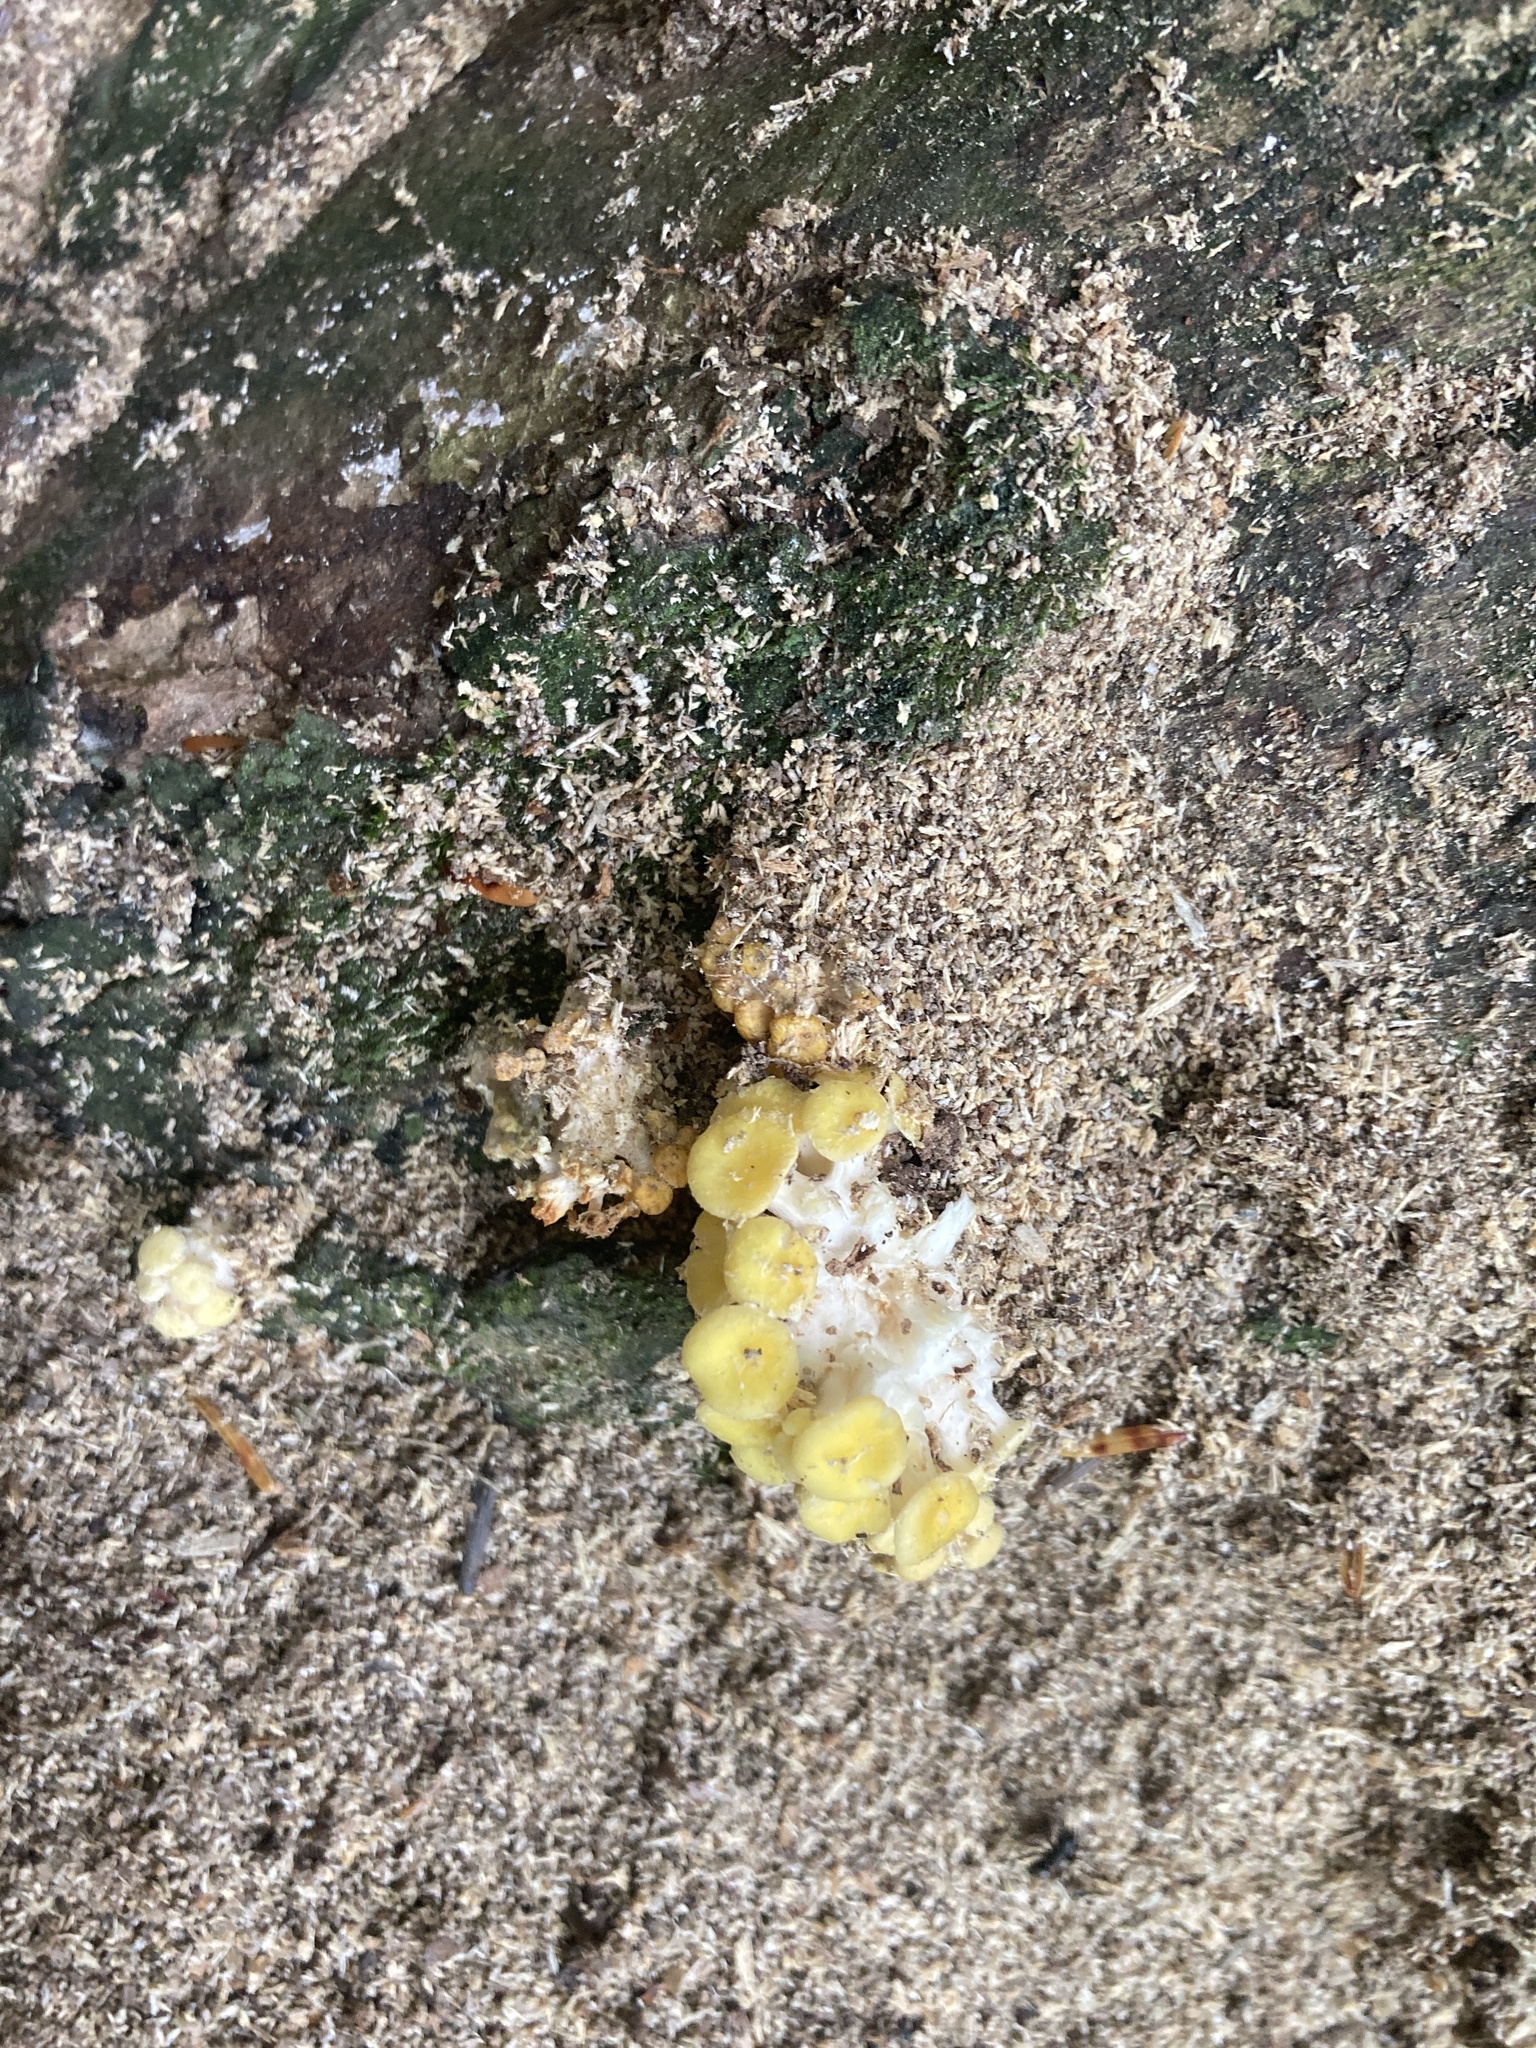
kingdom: Fungi
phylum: Basidiomycota
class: Agaricomycetes
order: Agaricales
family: Pleurotaceae
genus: Pleurotus
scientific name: Pleurotus citrinopileatus
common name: Golden oyster mushroom
